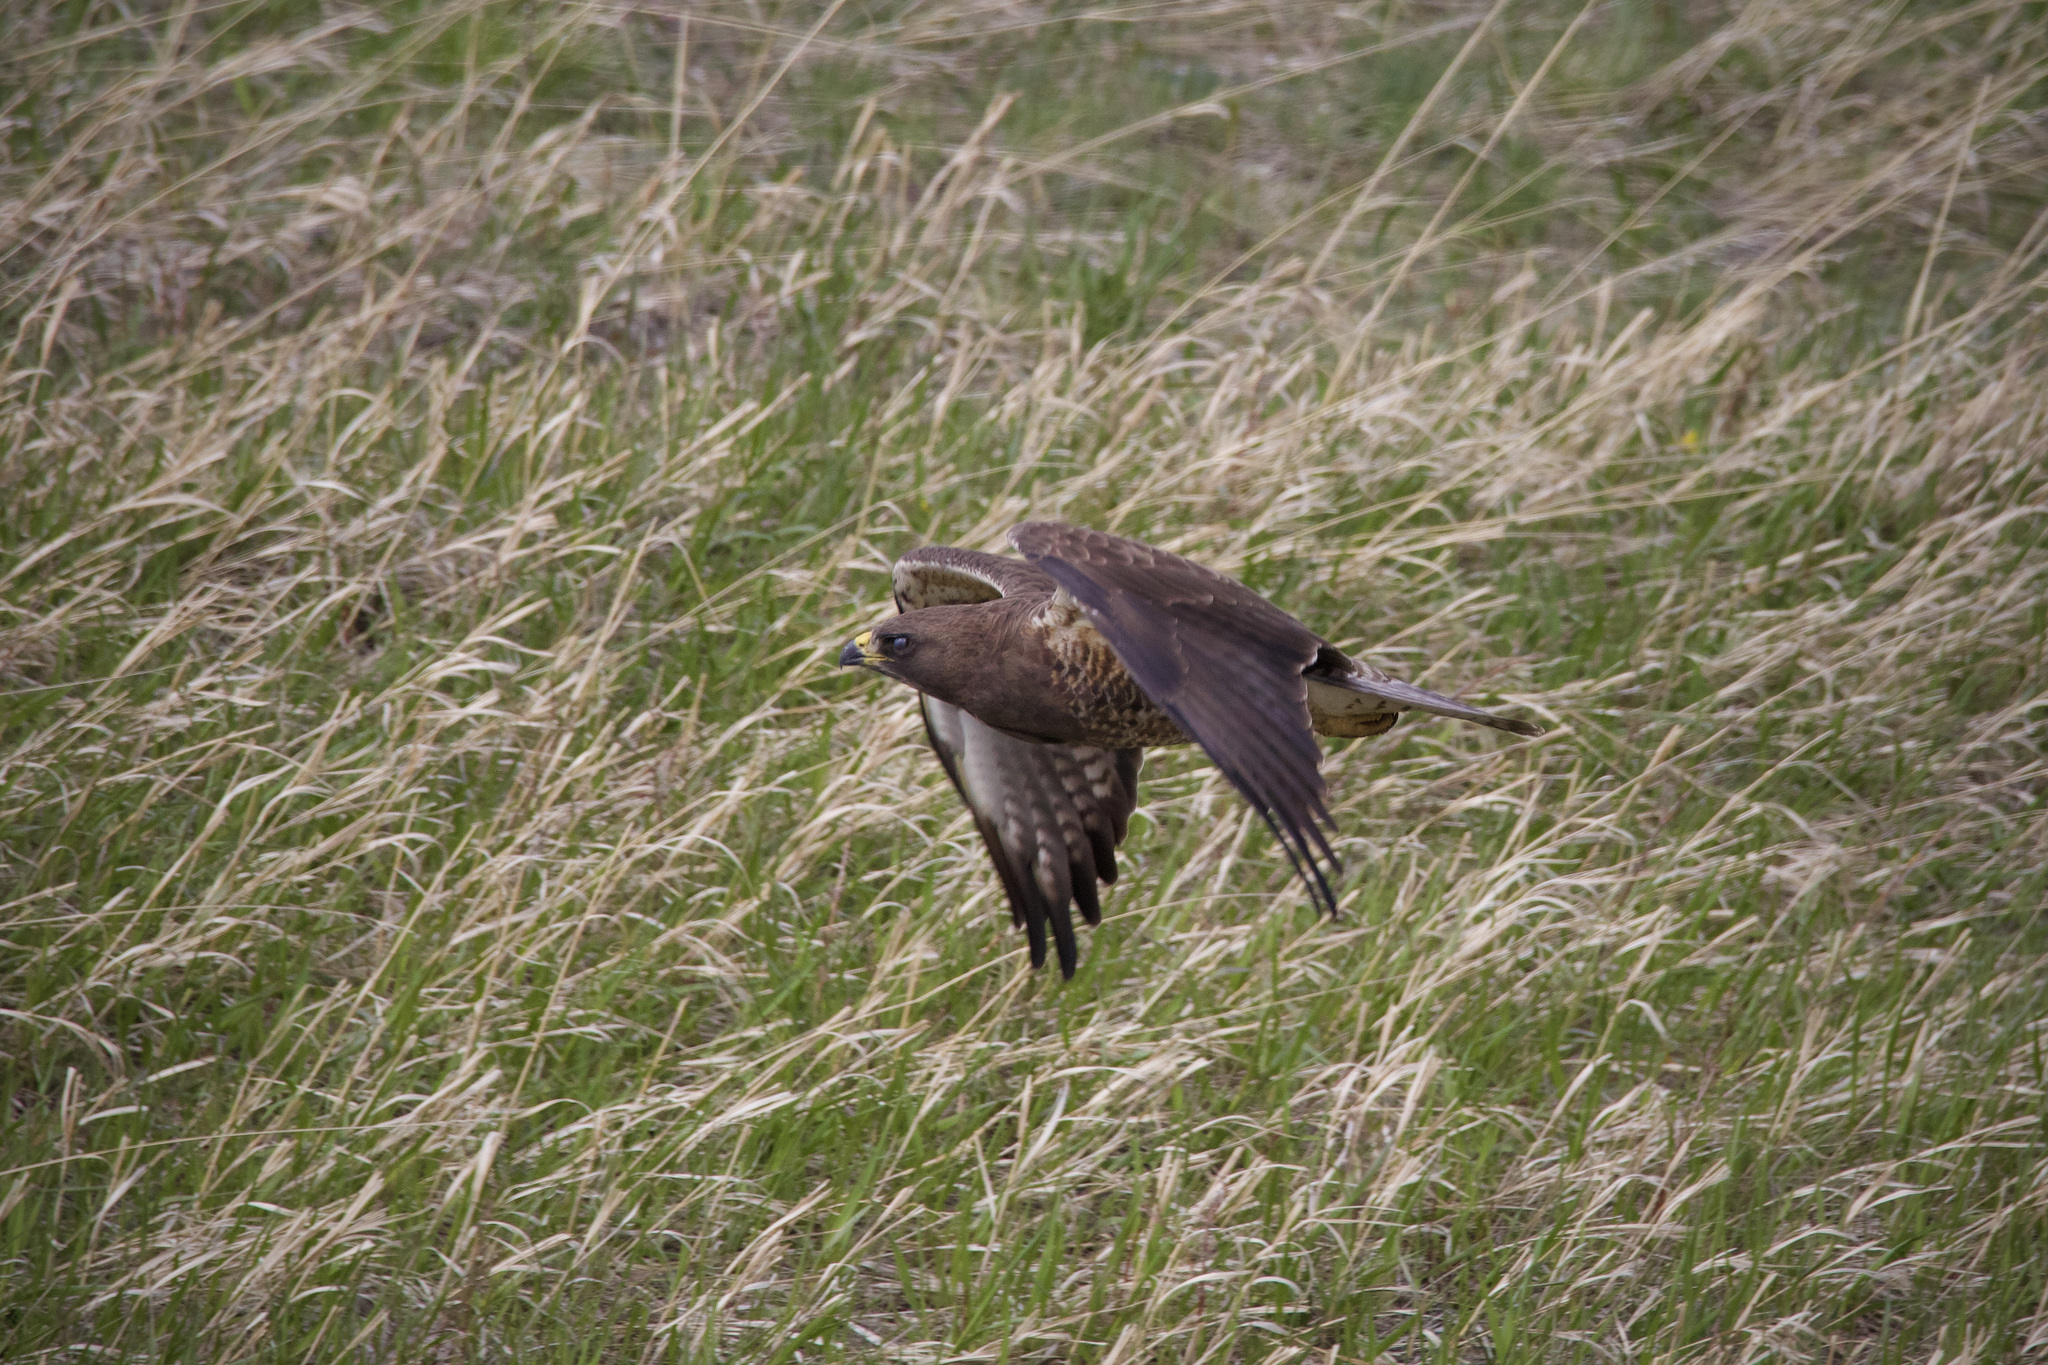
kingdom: Animalia
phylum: Chordata
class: Aves
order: Accipitriformes
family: Accipitridae
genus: Buteo
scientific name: Buteo swainsoni
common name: Swainson's hawk
